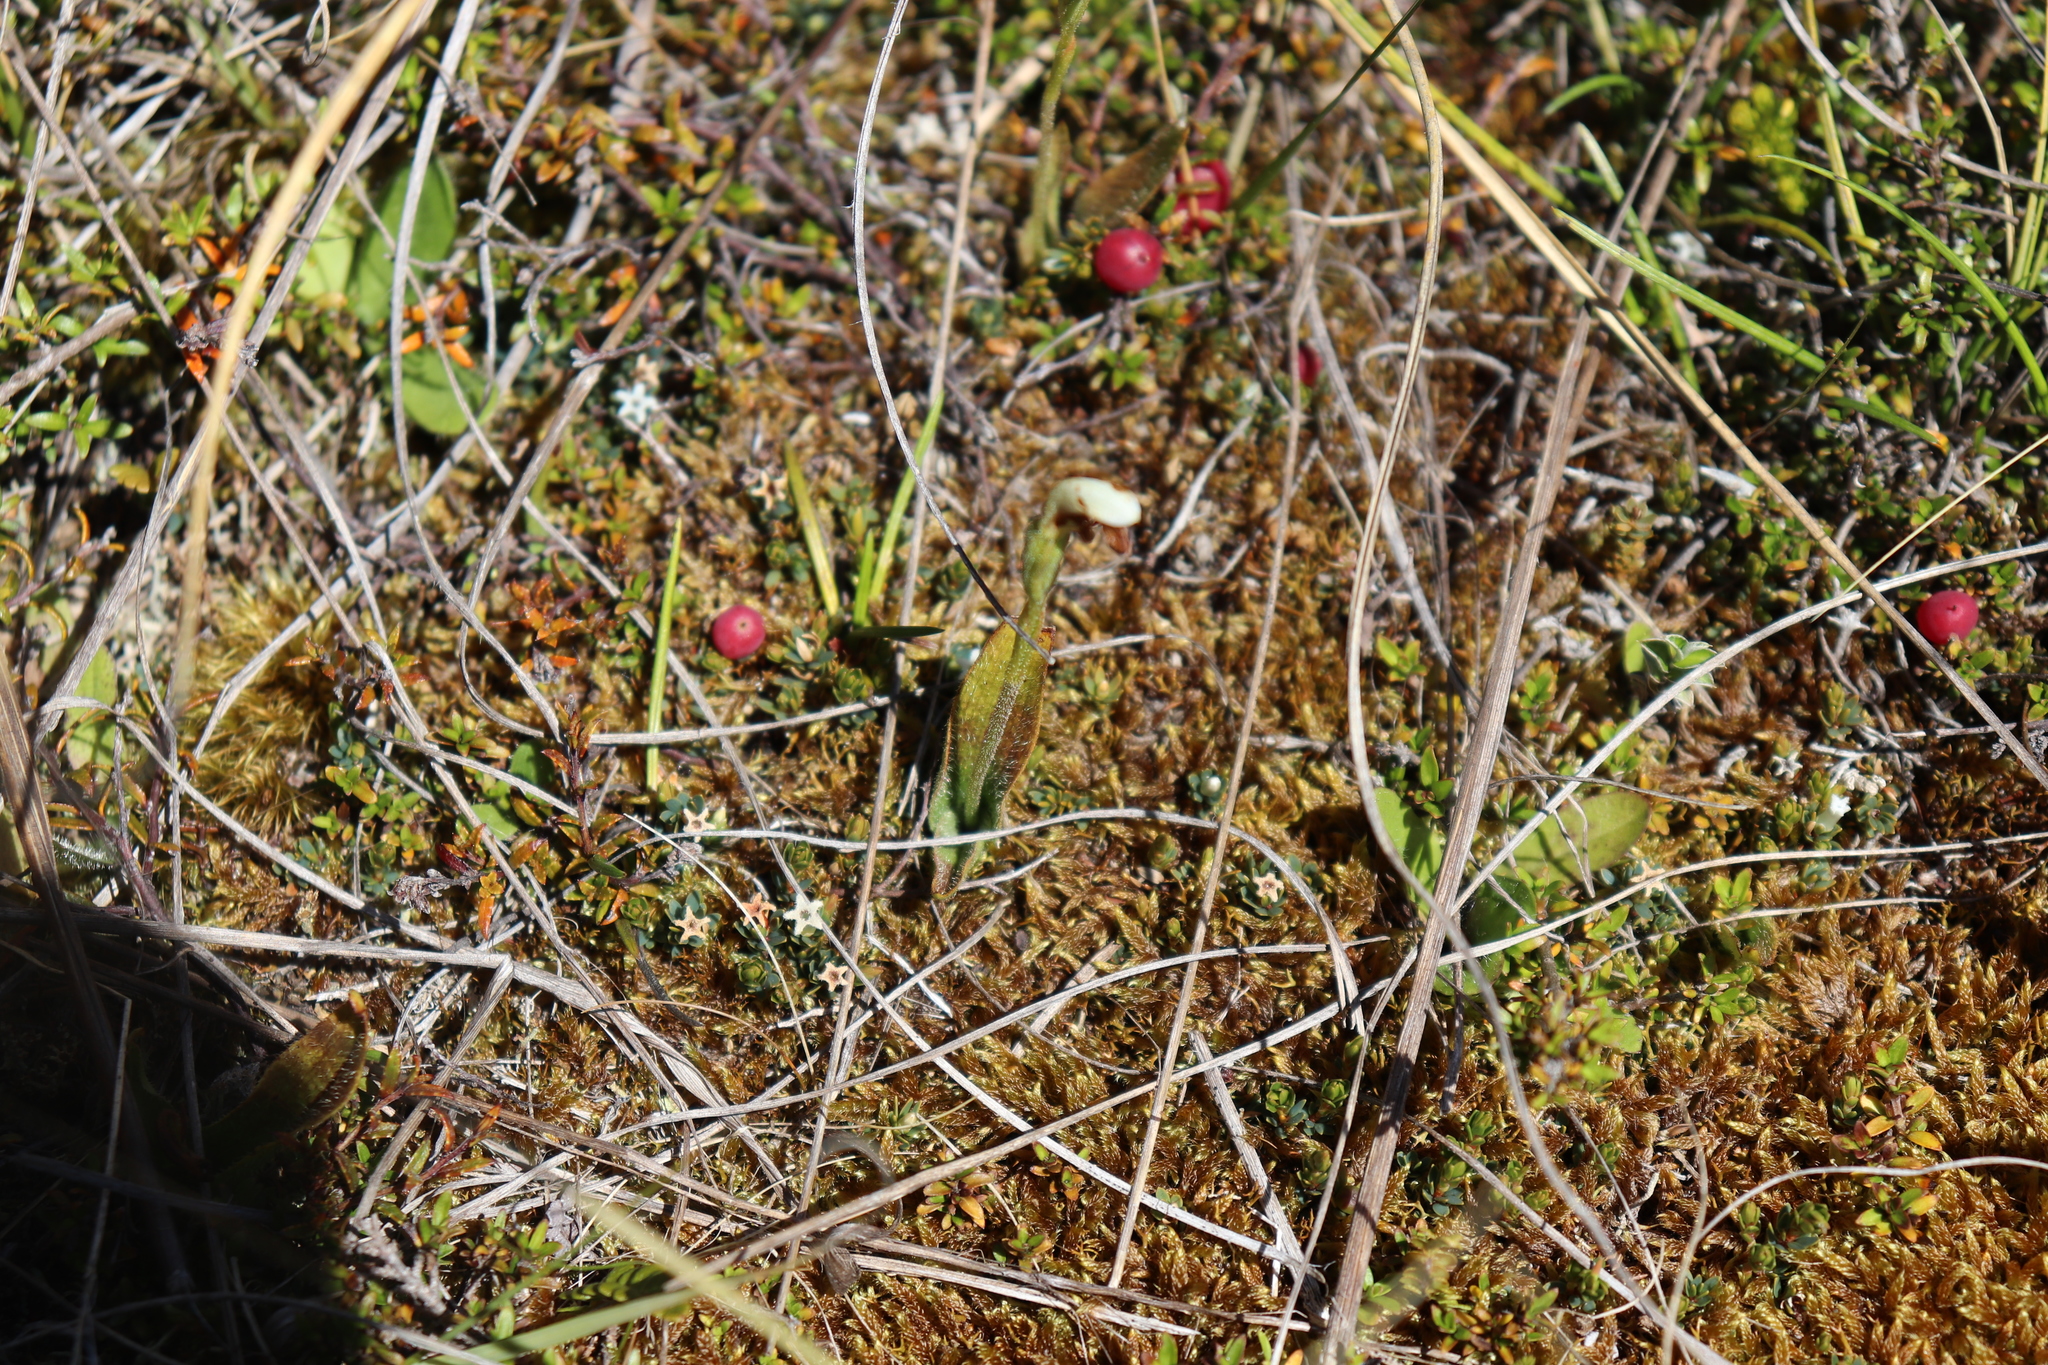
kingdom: Plantae
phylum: Tracheophyta
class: Liliopsida
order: Asparagales
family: Orchidaceae
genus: Aporostylis
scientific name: Aporostylis bifolia
